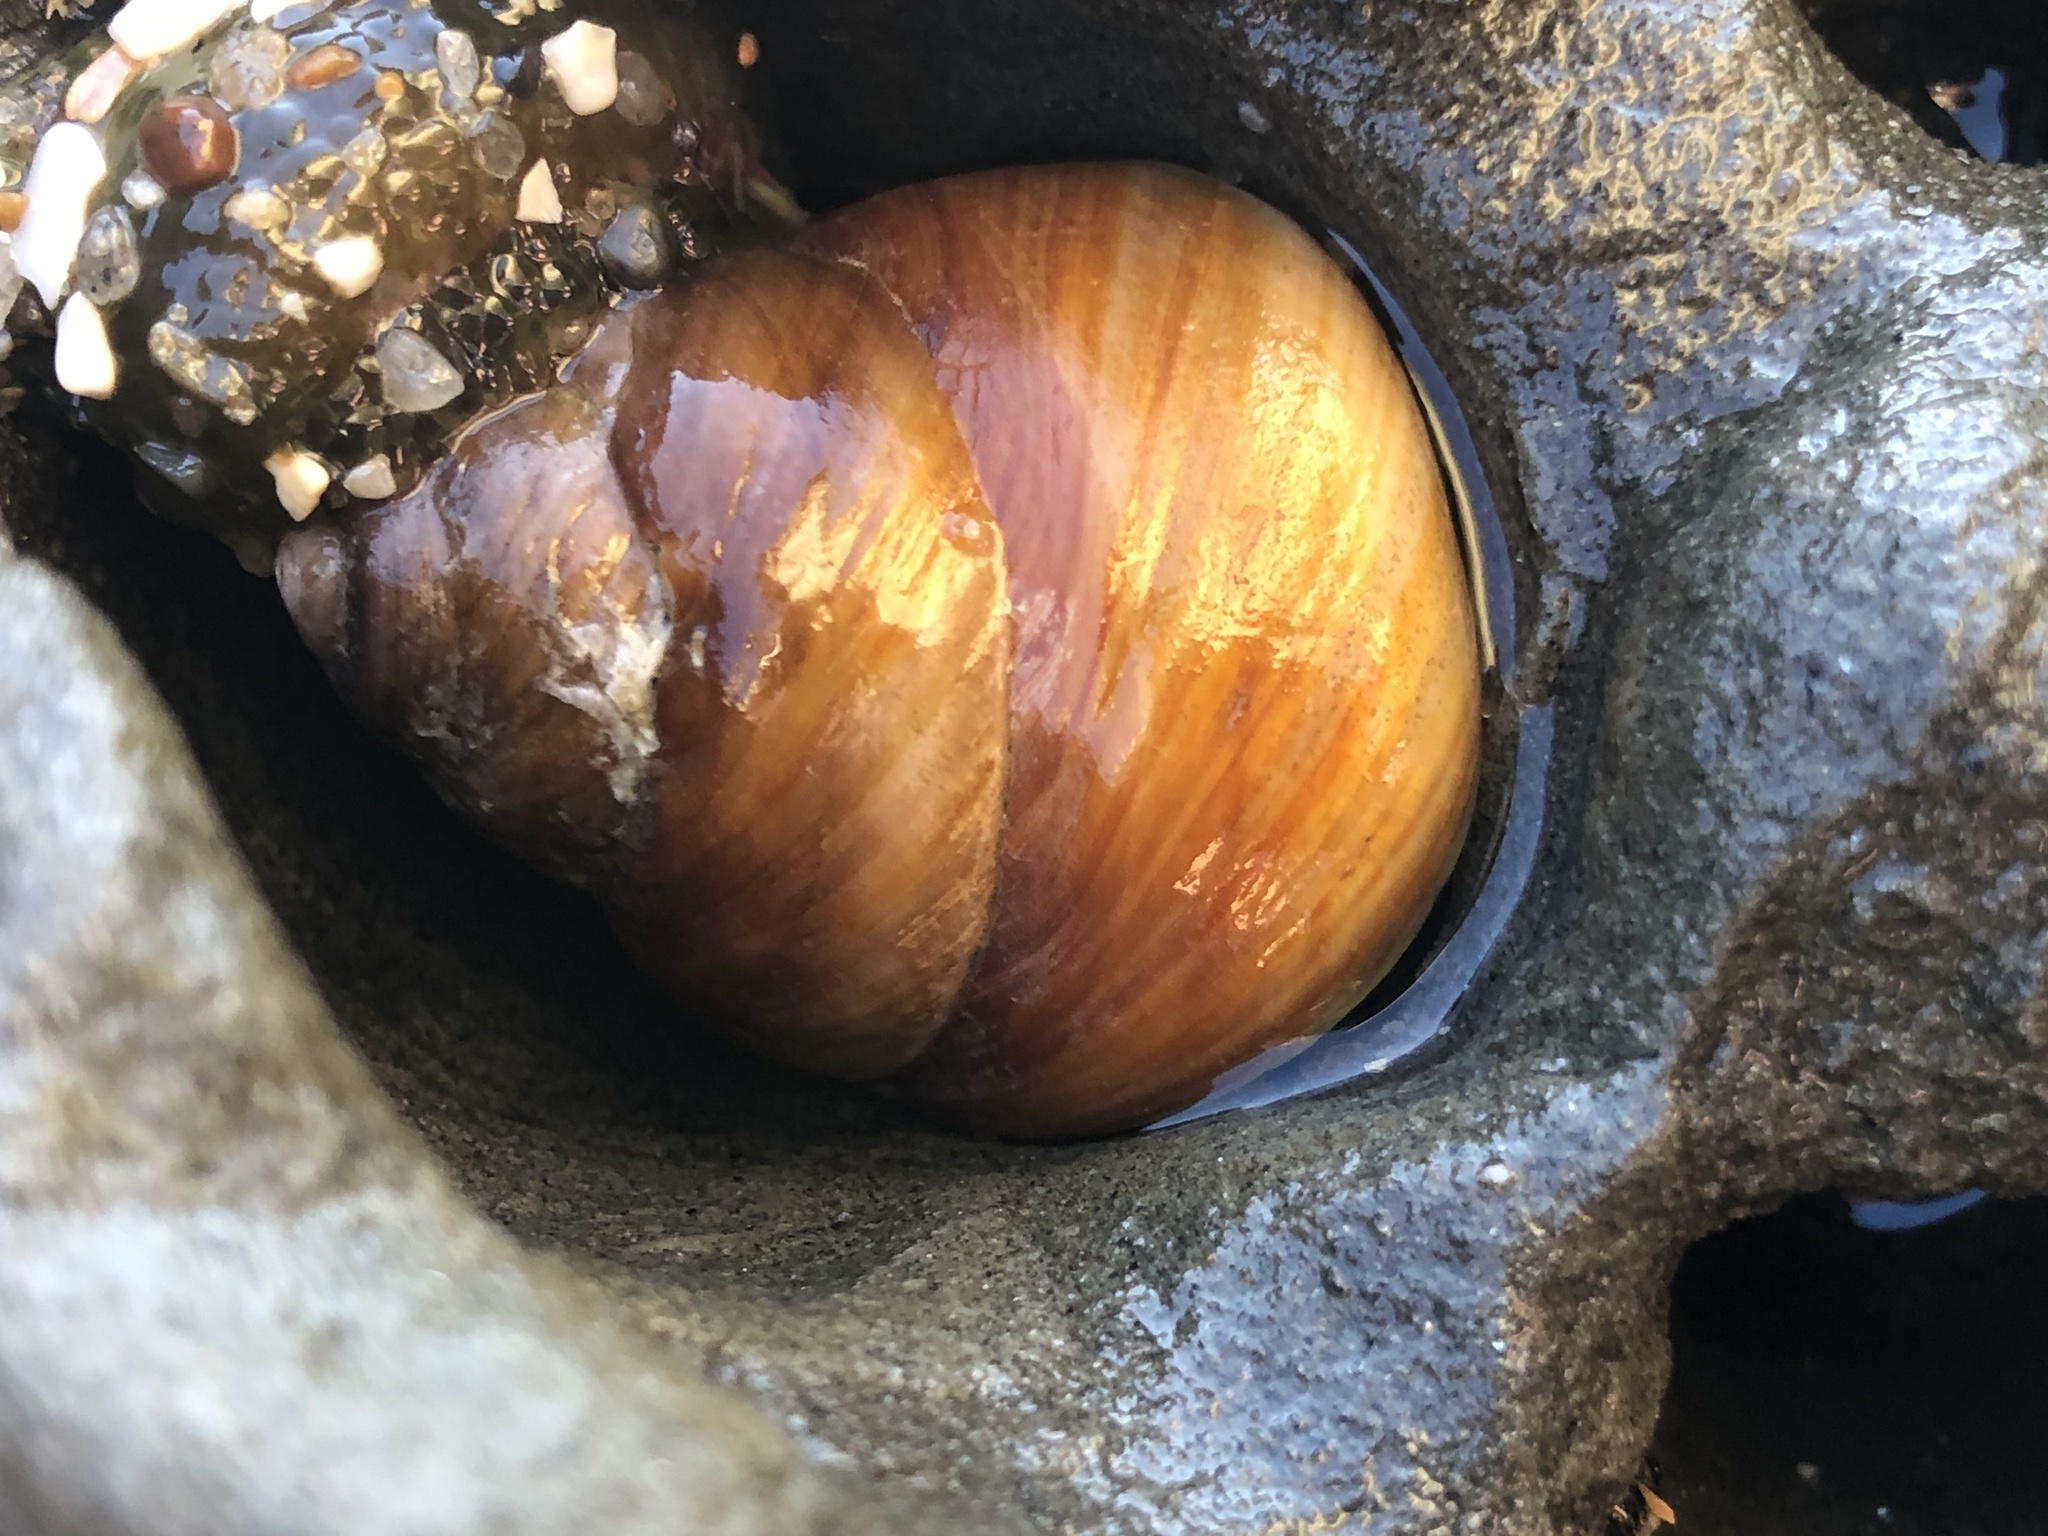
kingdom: Animalia
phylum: Mollusca
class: Gastropoda
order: Trochida
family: Tegulidae
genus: Tegula
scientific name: Tegula brunnea
